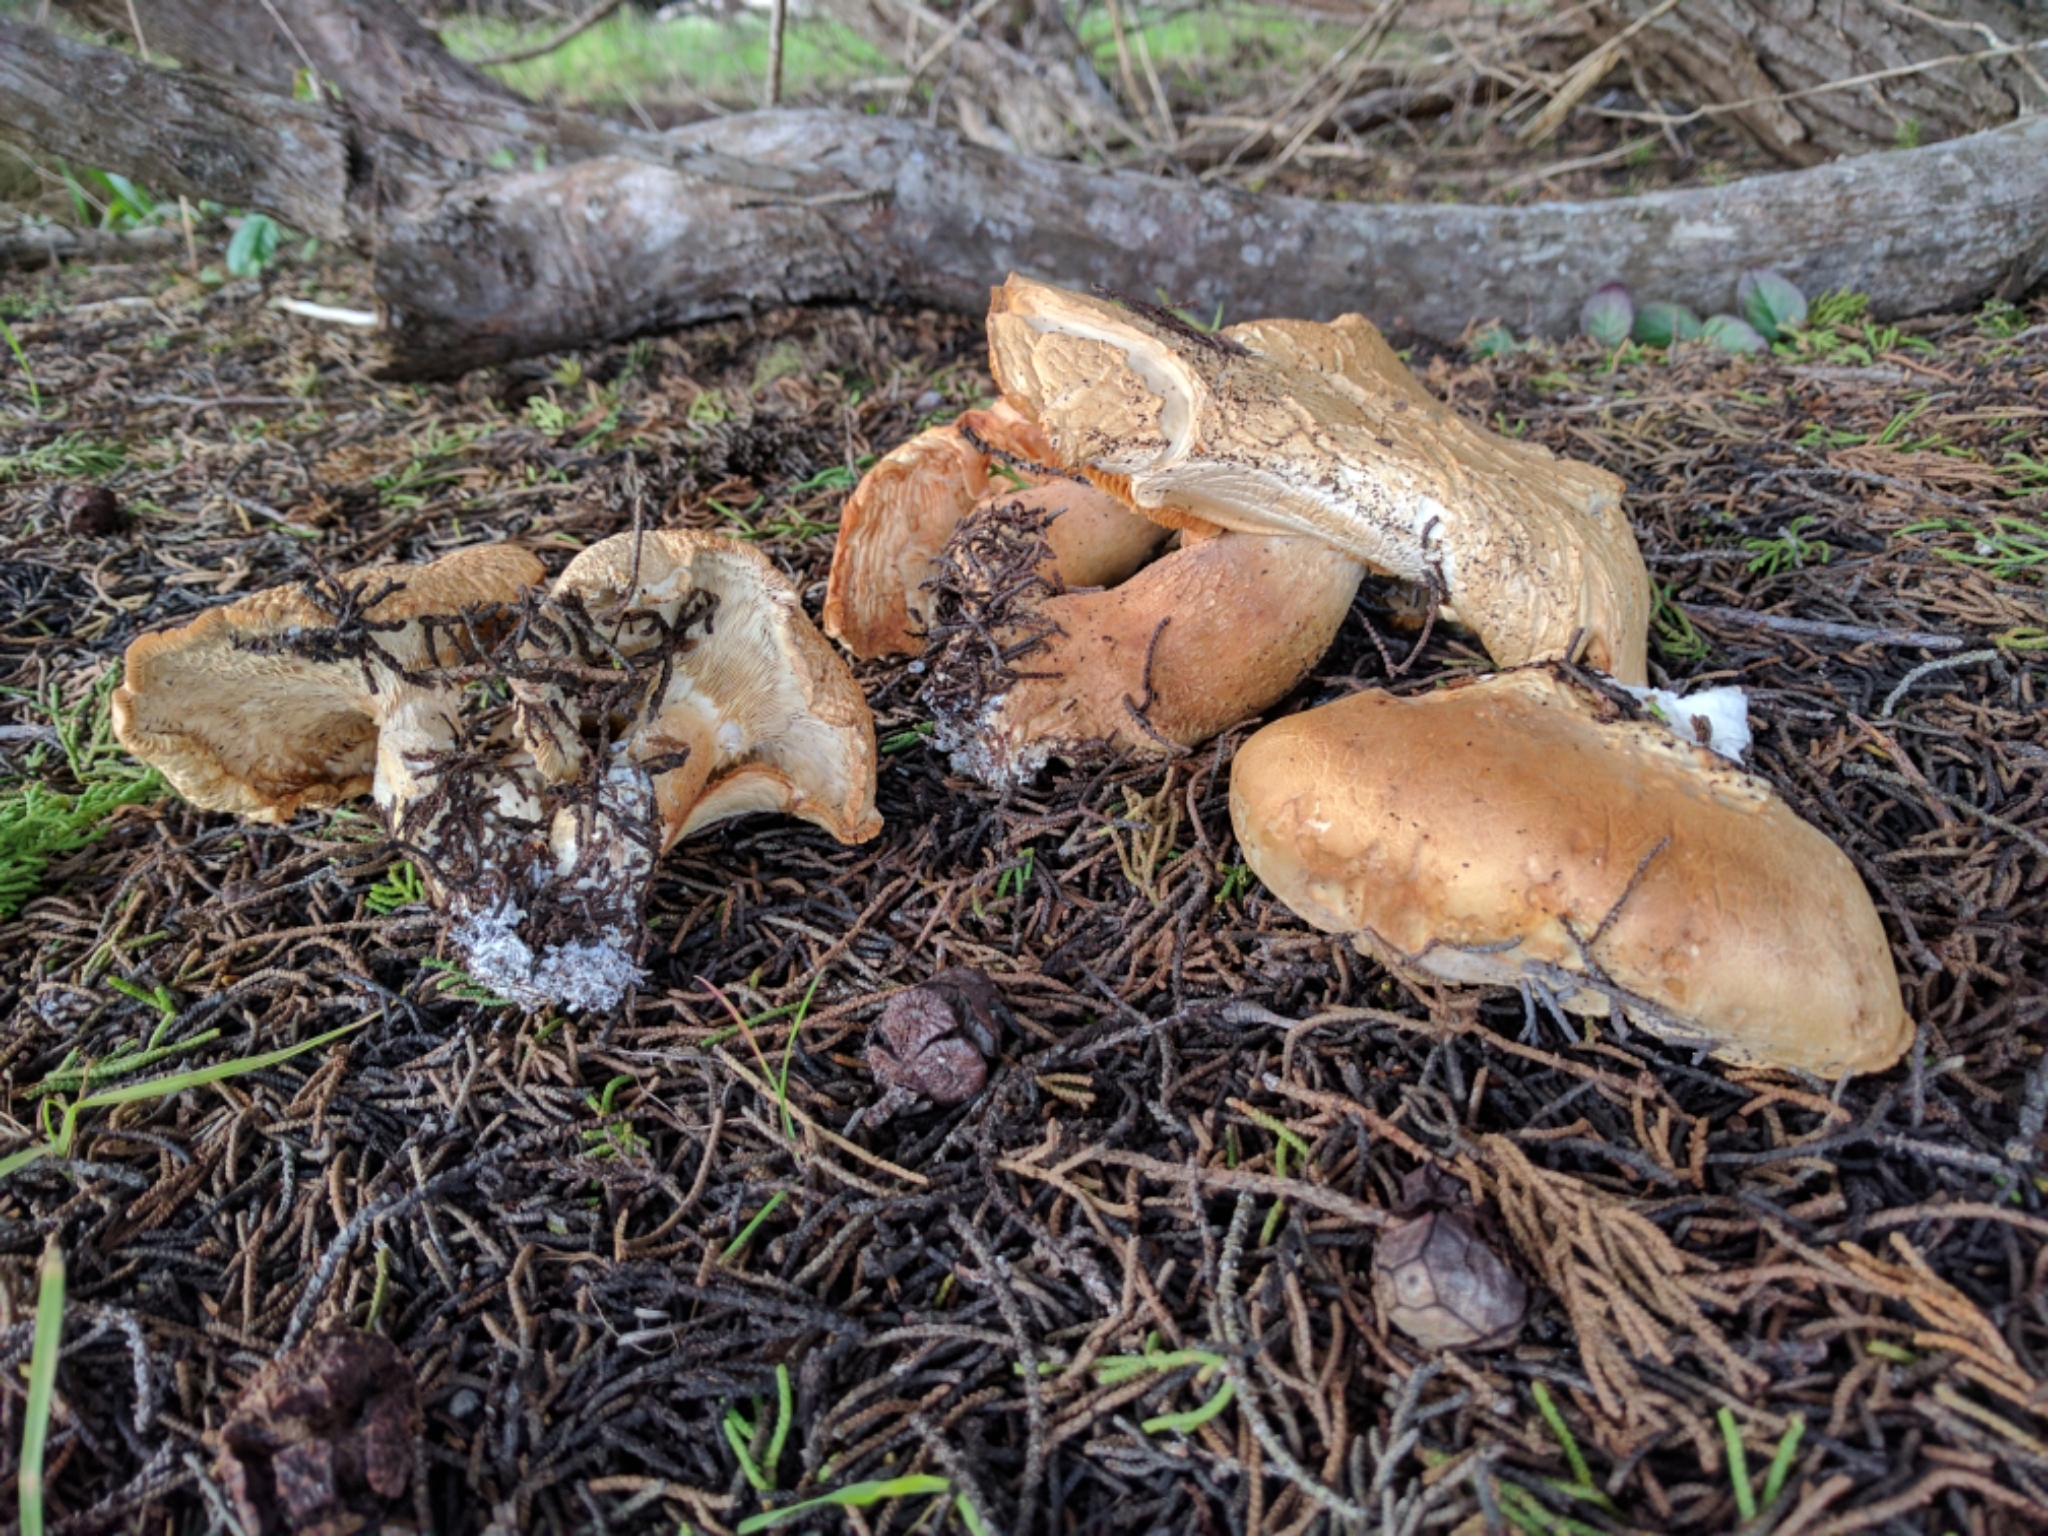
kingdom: Fungi
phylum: Basidiomycota
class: Agaricomycetes
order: Agaricales
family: Tricholomataceae
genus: Leucopaxillus
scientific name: Leucopaxillus gentianeus
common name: Bitter funnel
